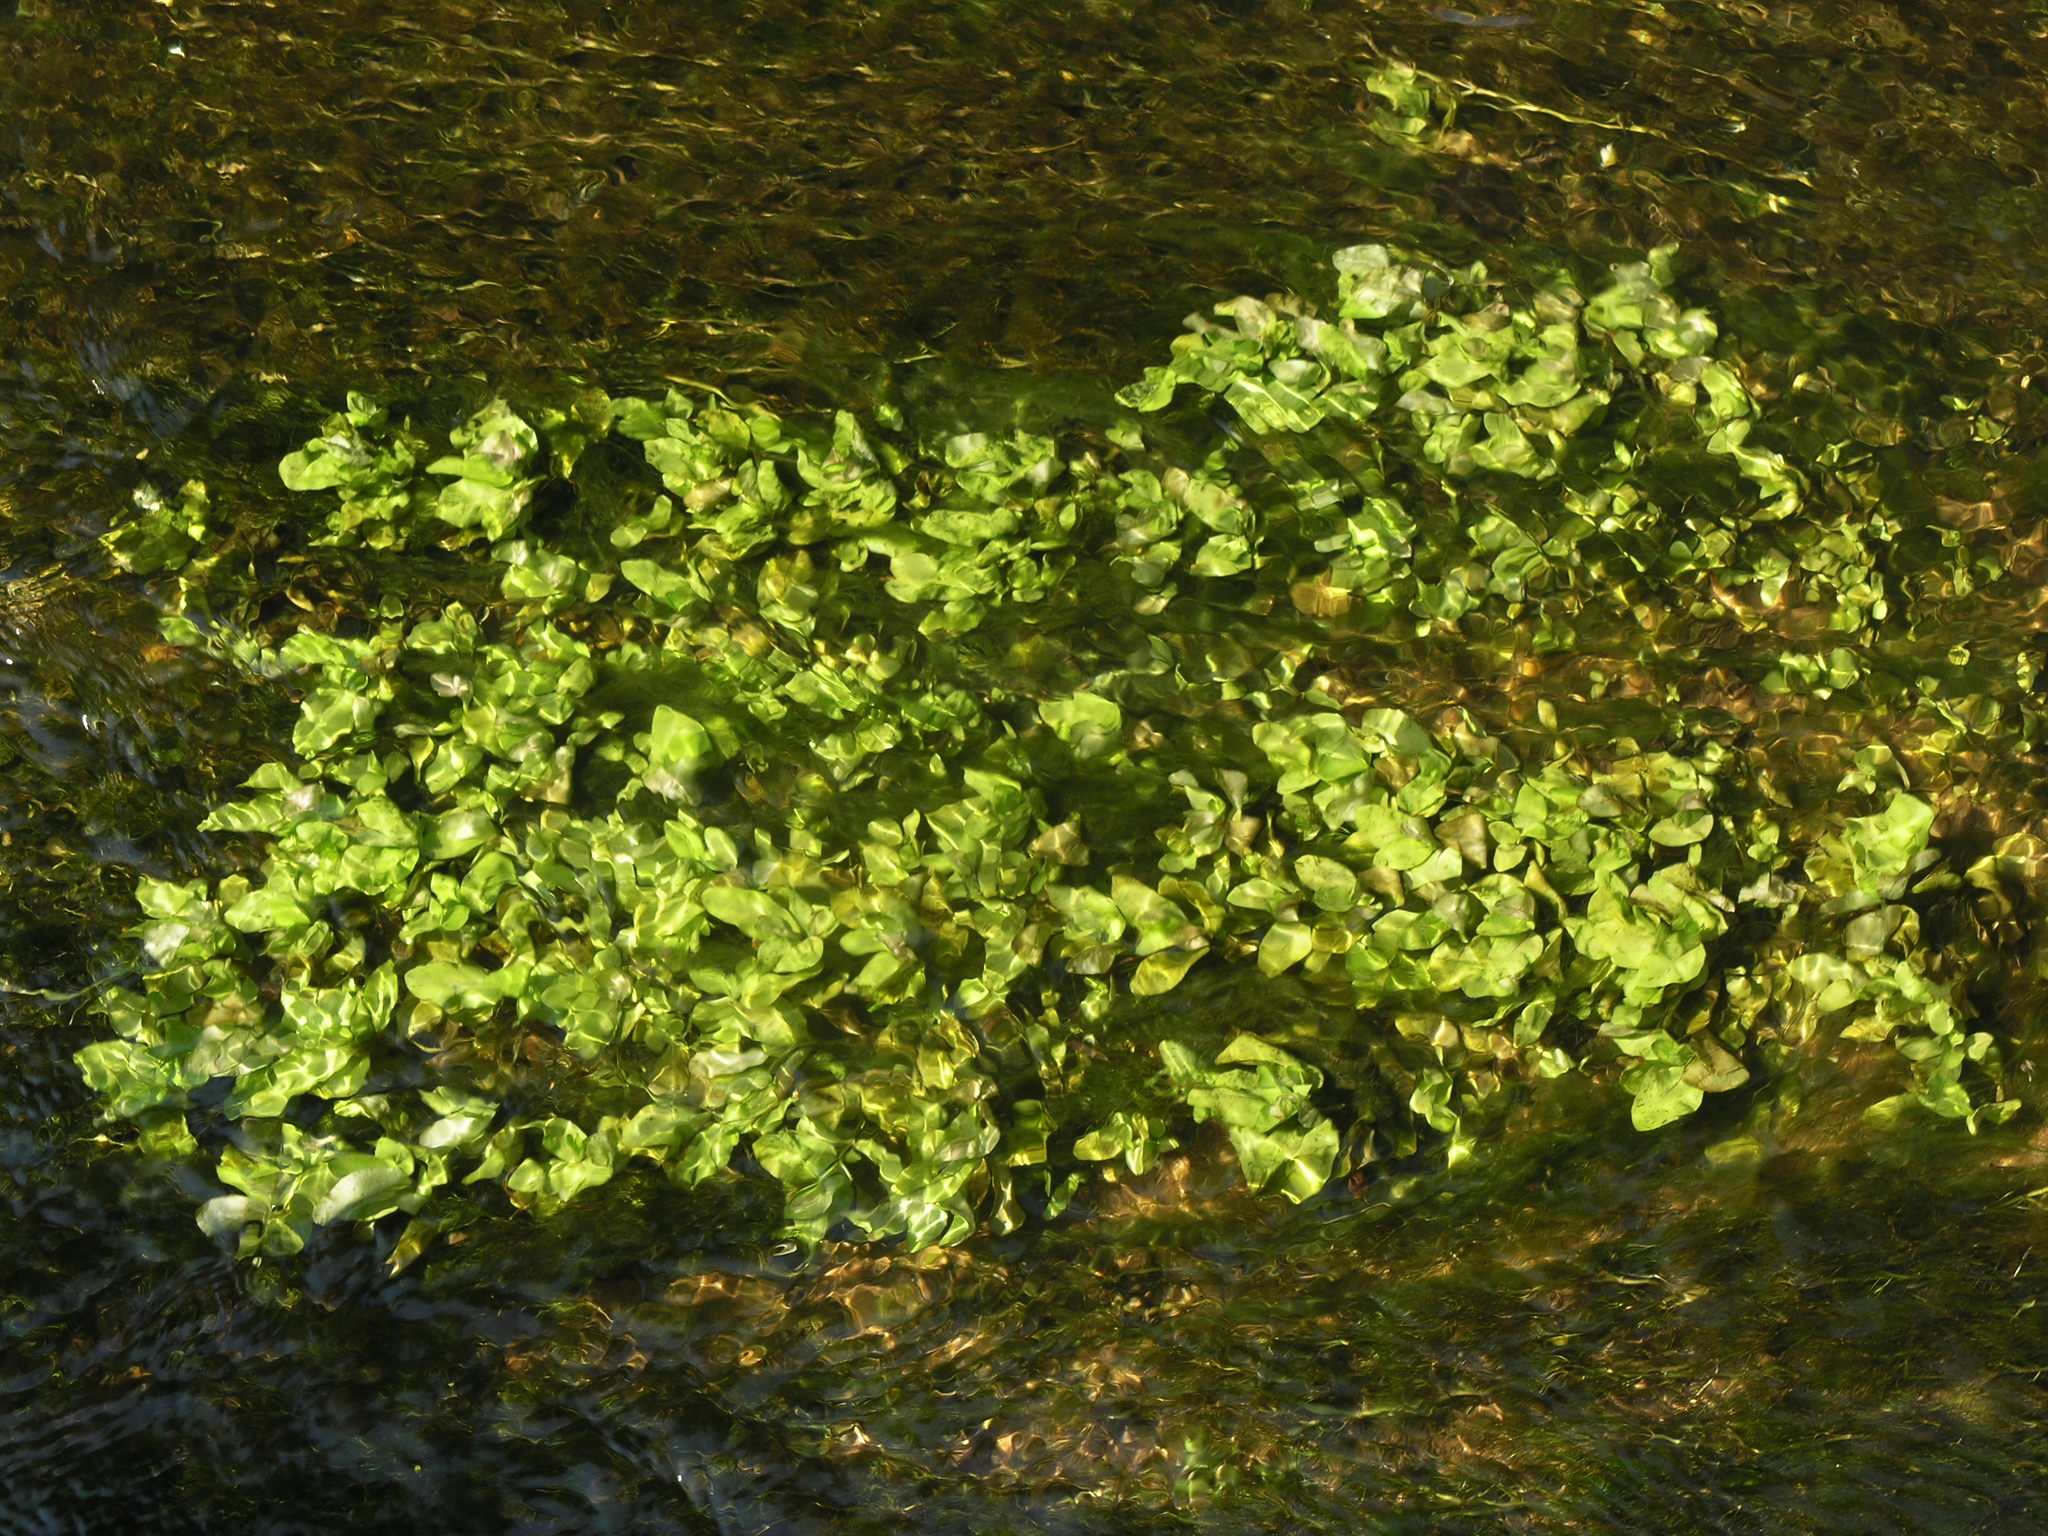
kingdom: Plantae
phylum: Tracheophyta
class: Magnoliopsida
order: Lamiales
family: Plantaginaceae
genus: Veronica
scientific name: Veronica anagallis-aquatica
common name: Water speedwell
